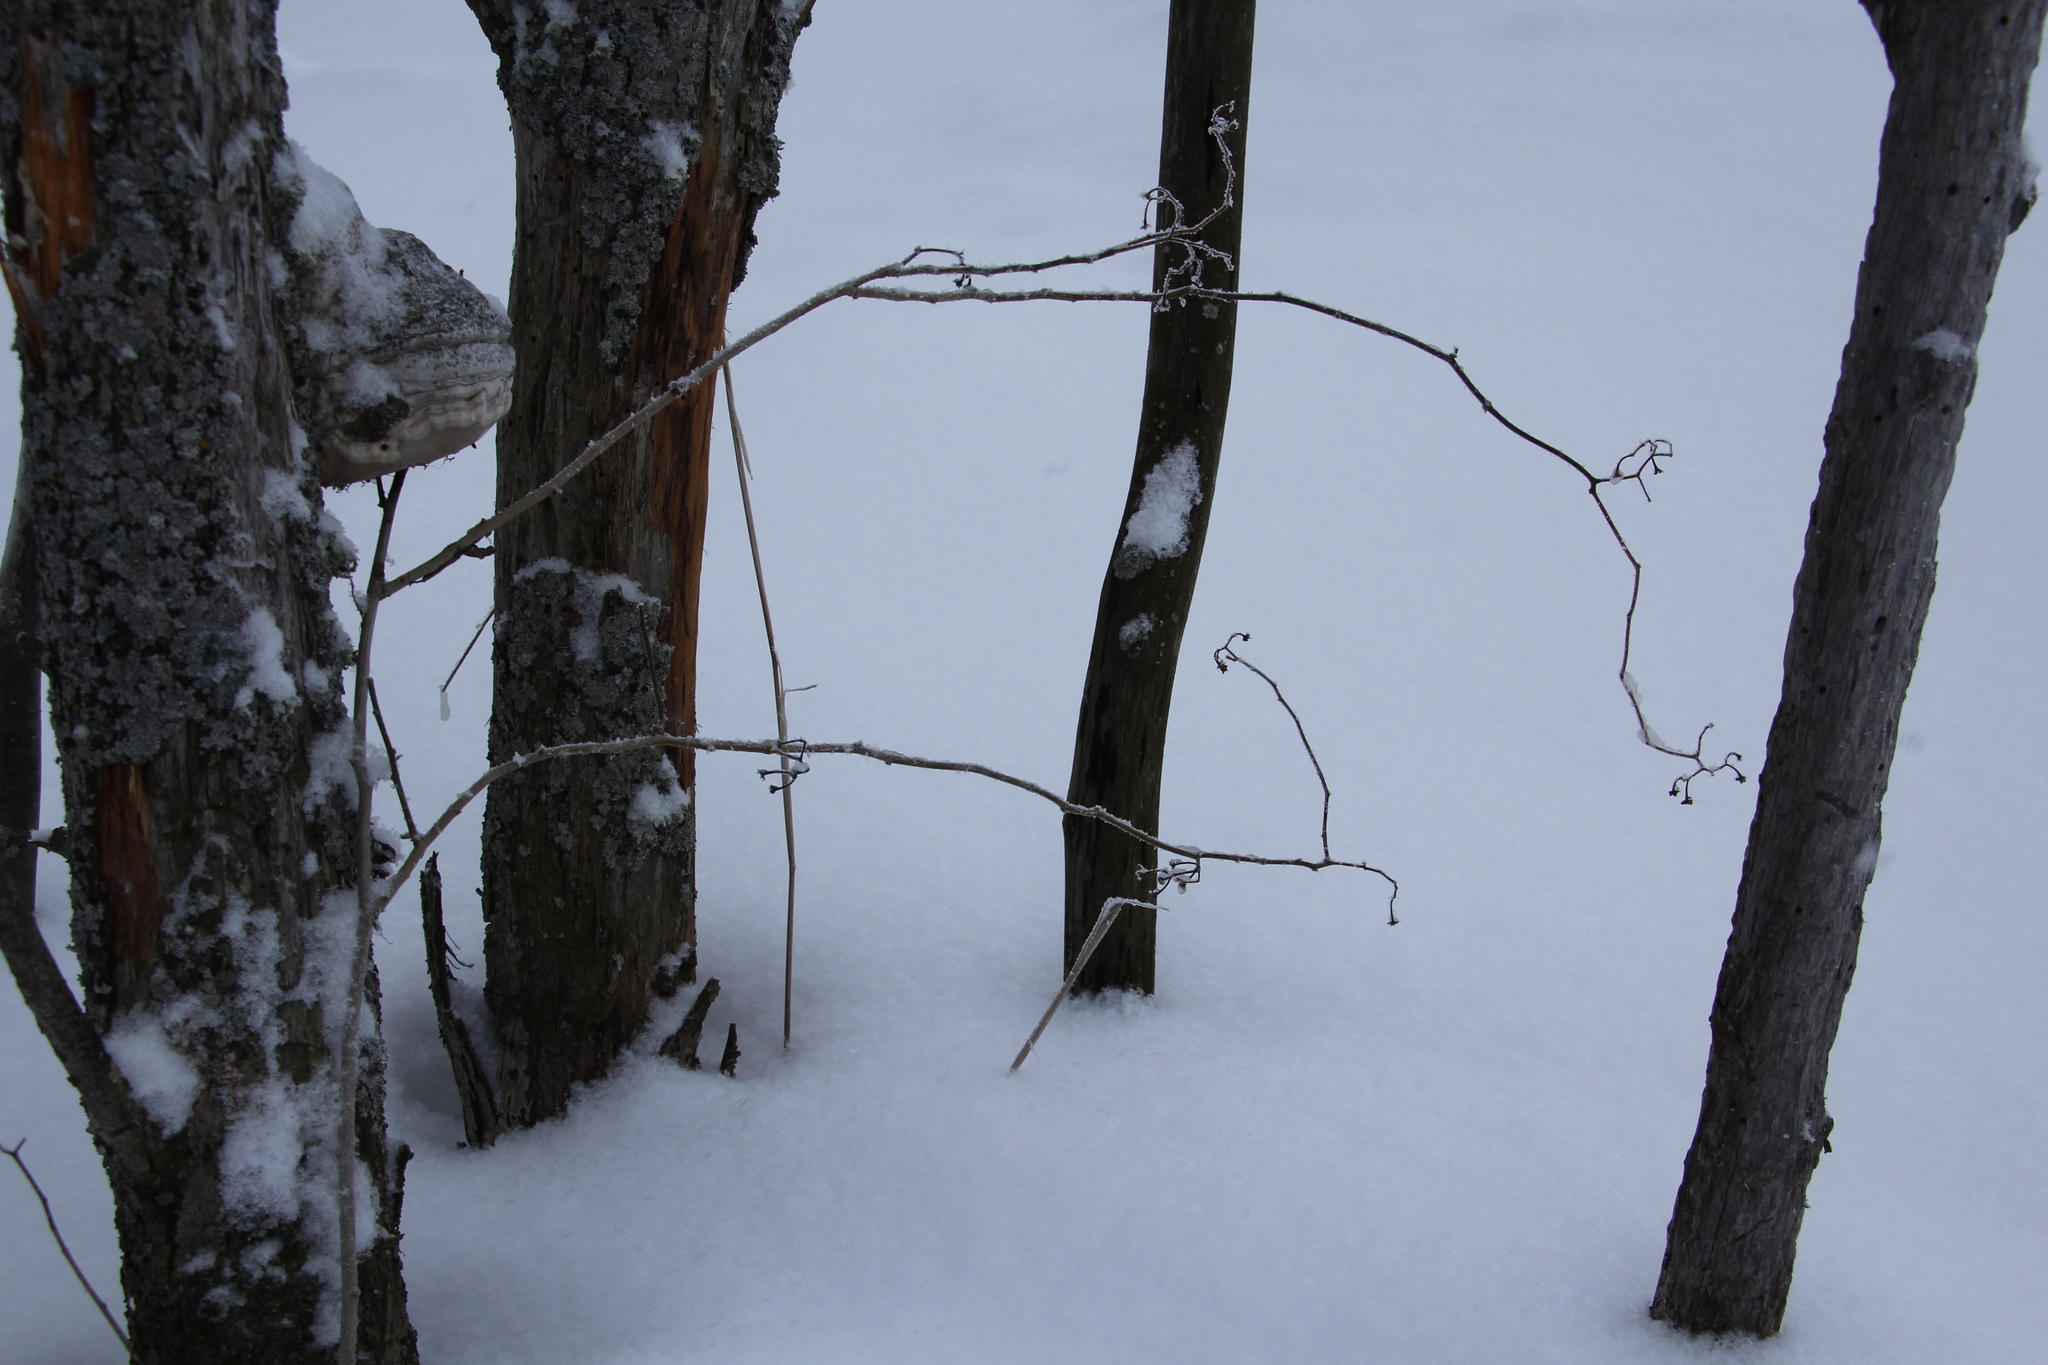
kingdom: Plantae
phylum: Tracheophyta
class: Magnoliopsida
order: Solanales
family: Solanaceae
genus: Solanum
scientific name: Solanum dulcamara
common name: Climbing nightshade
